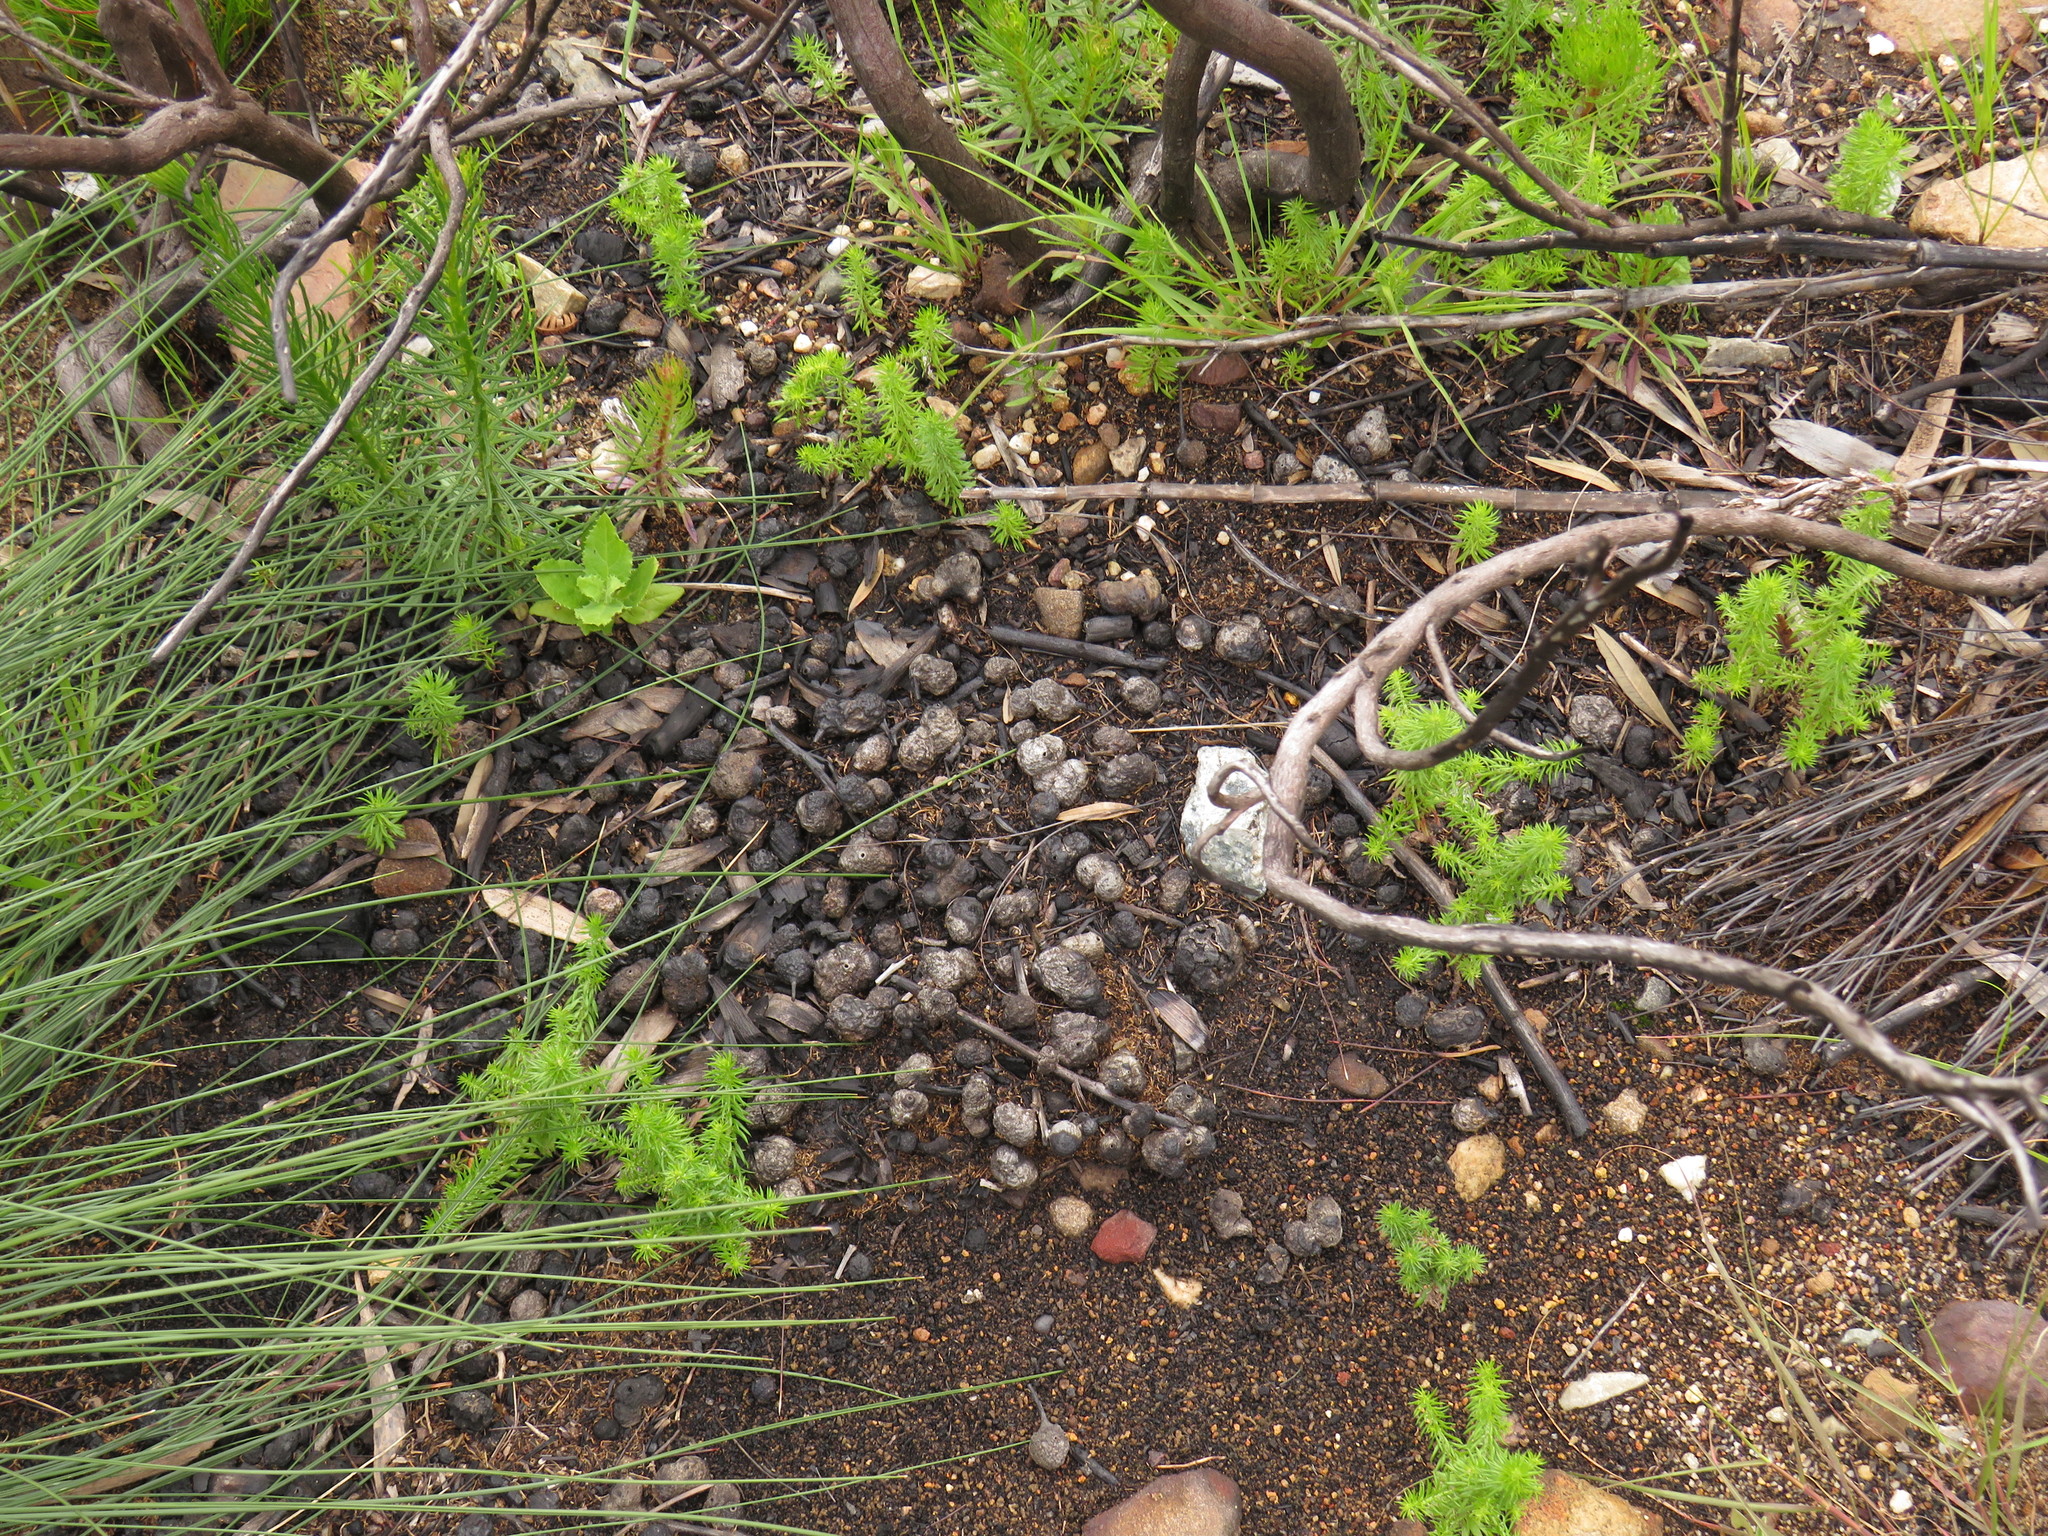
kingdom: Animalia
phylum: Arthropoda
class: Insecta
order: Hymenoptera
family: Pteromalidae
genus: Trichilogaster
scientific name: Trichilogaster acaciaelongifoliae
